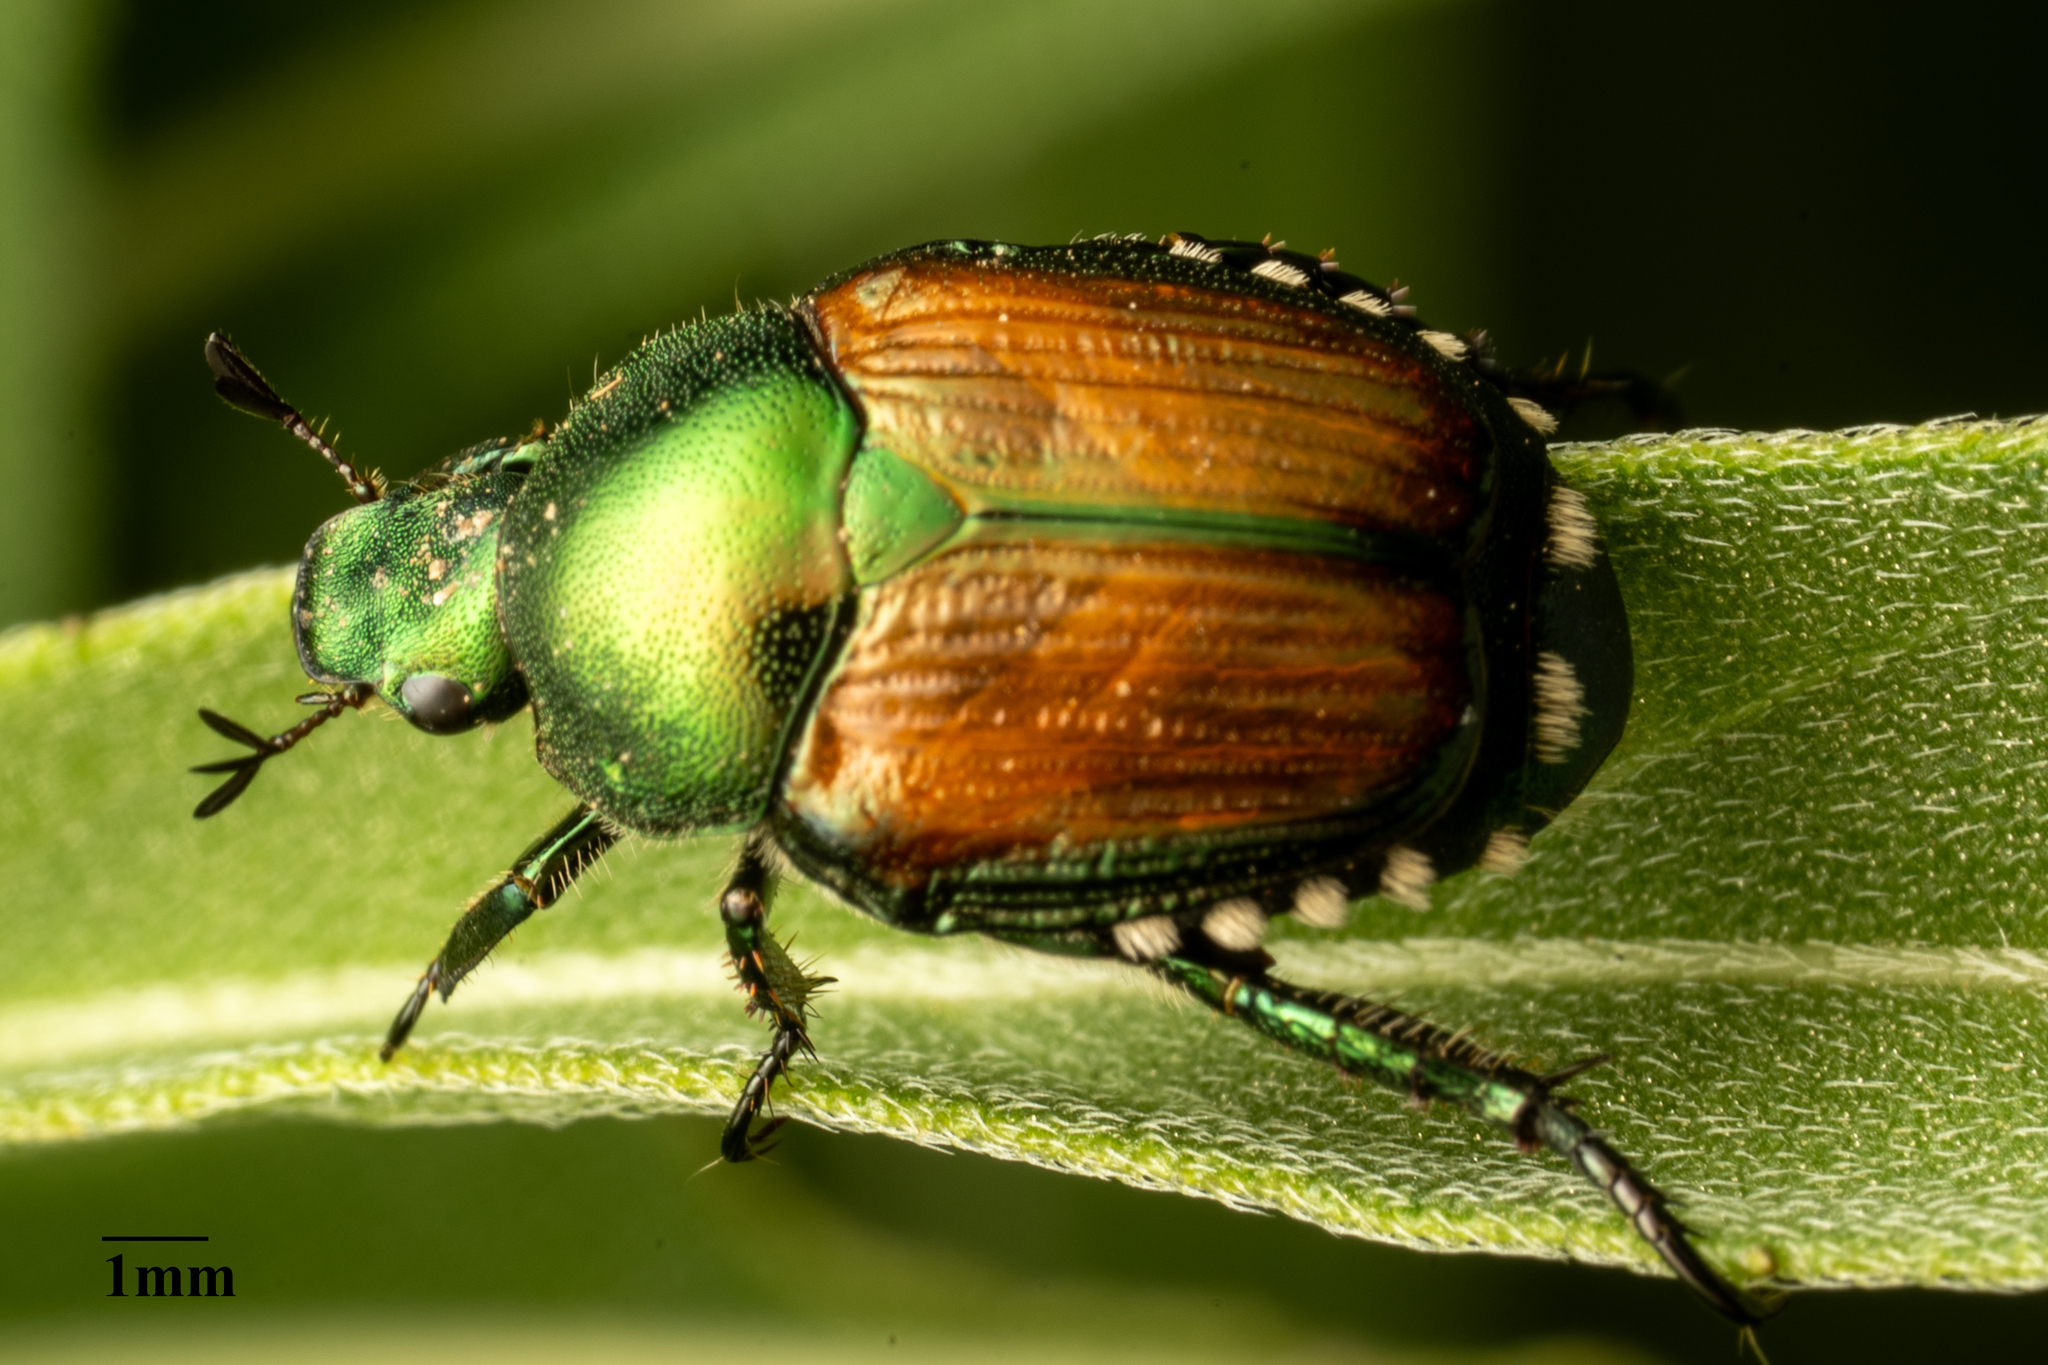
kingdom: Animalia
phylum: Arthropoda
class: Insecta
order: Coleoptera
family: Scarabaeidae
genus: Popillia
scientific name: Popillia japonica
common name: Japanese beetle
